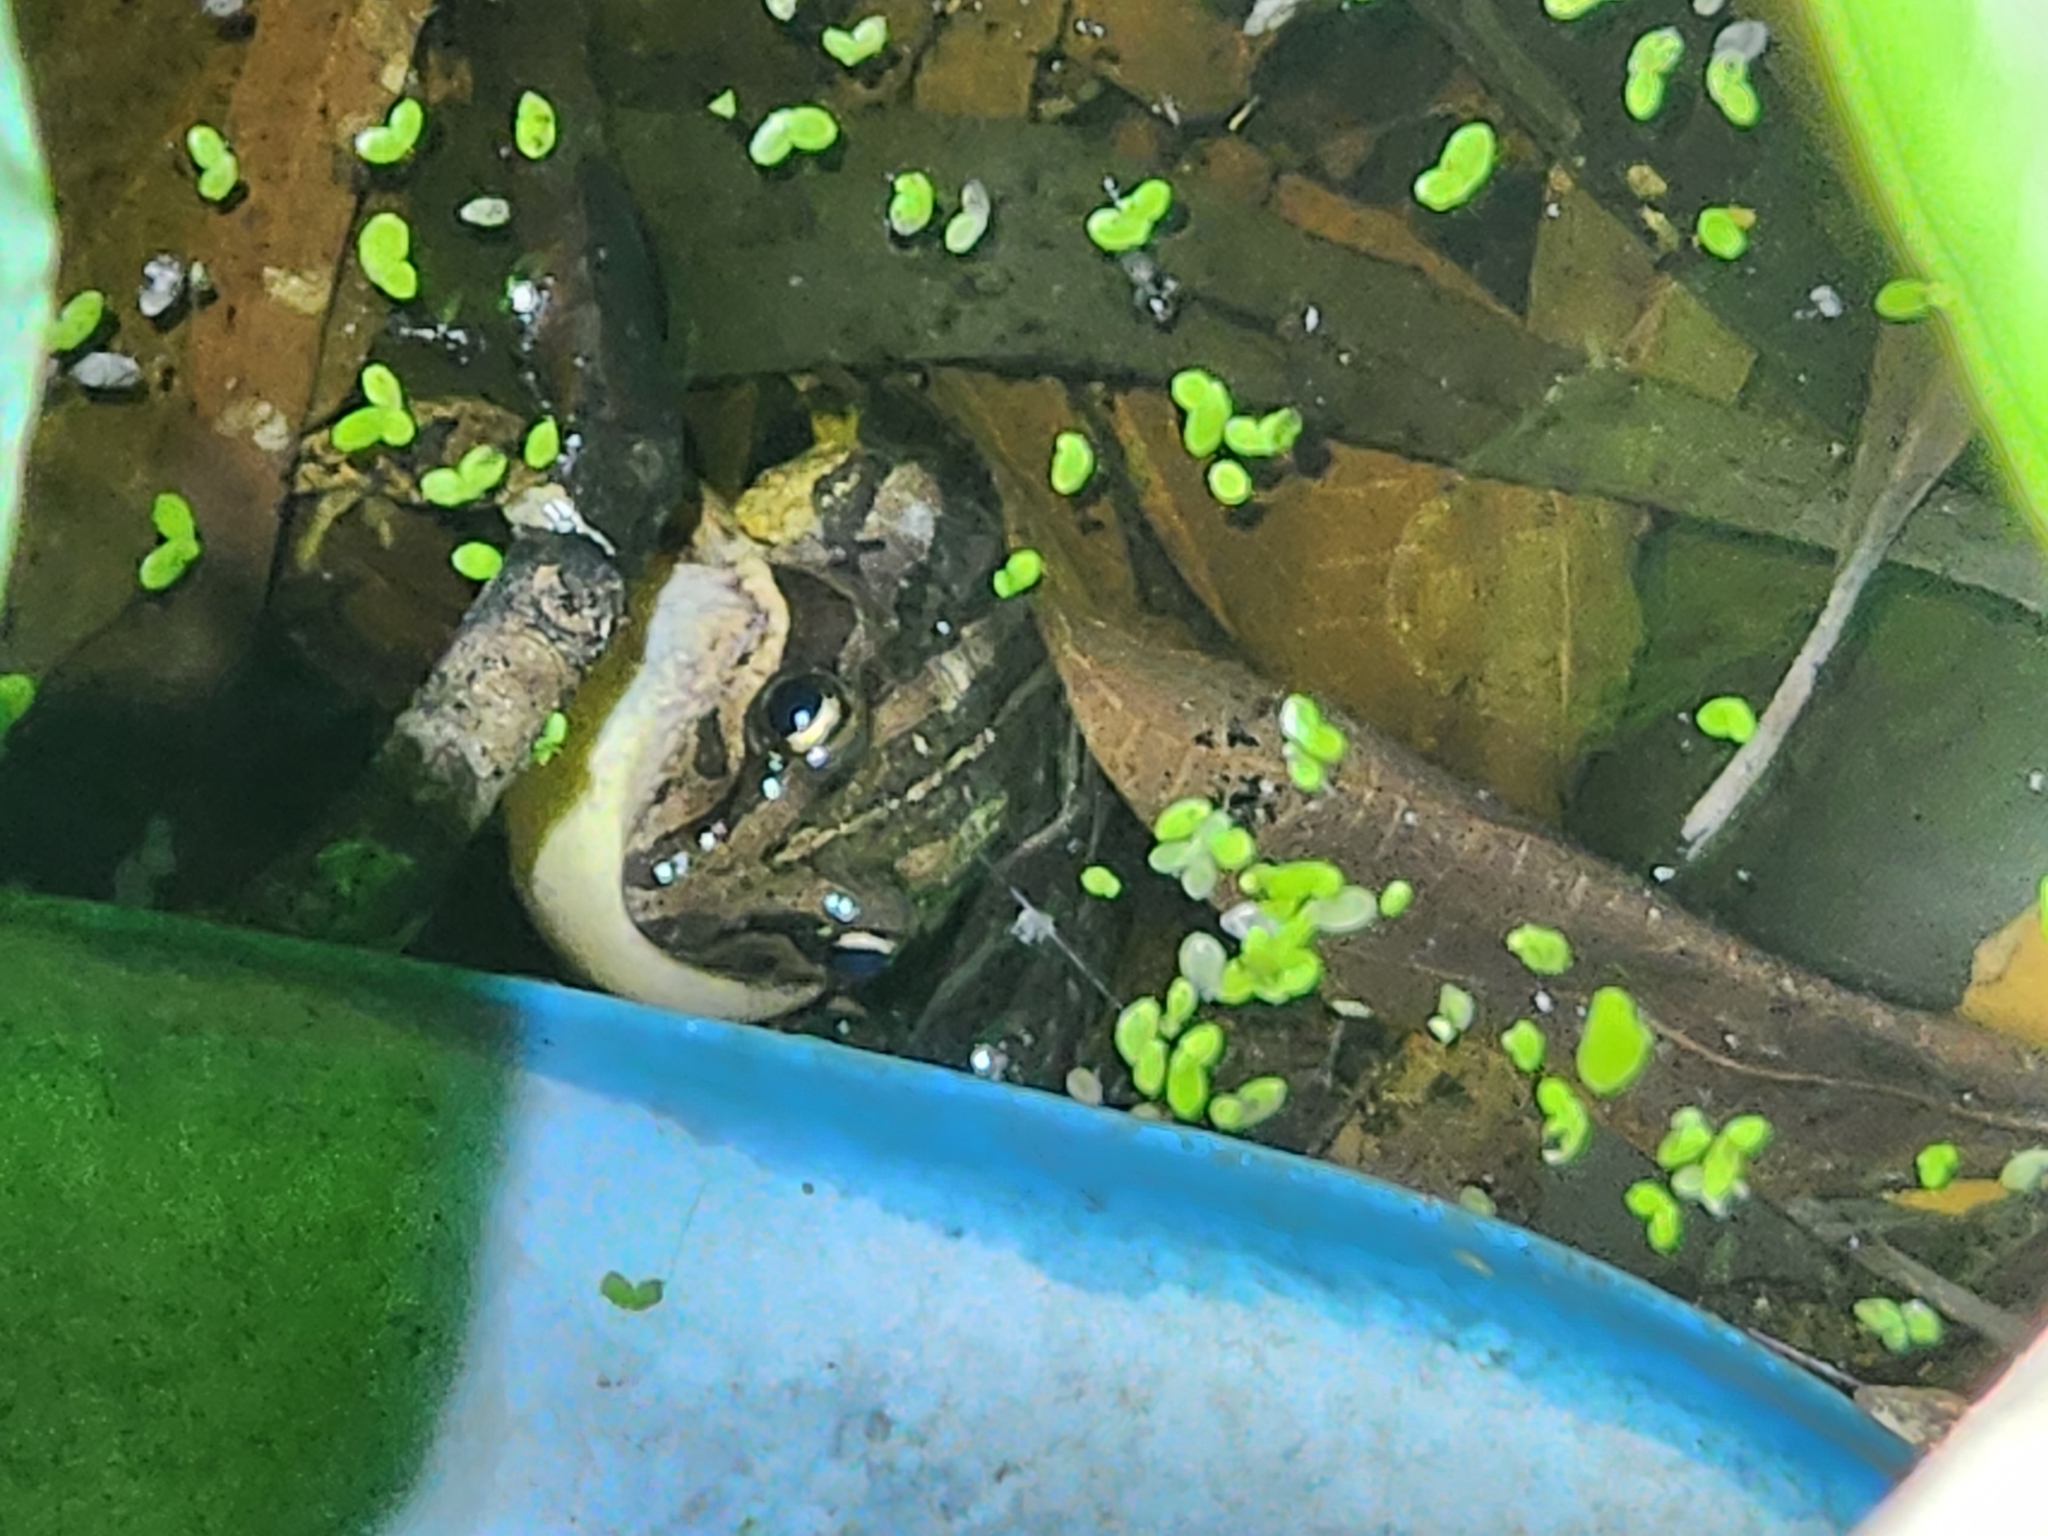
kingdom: Animalia
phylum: Chordata
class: Amphibia
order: Anura
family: Limnodynastidae
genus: Limnodynastes
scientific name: Limnodynastes peronii
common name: Brown frog
